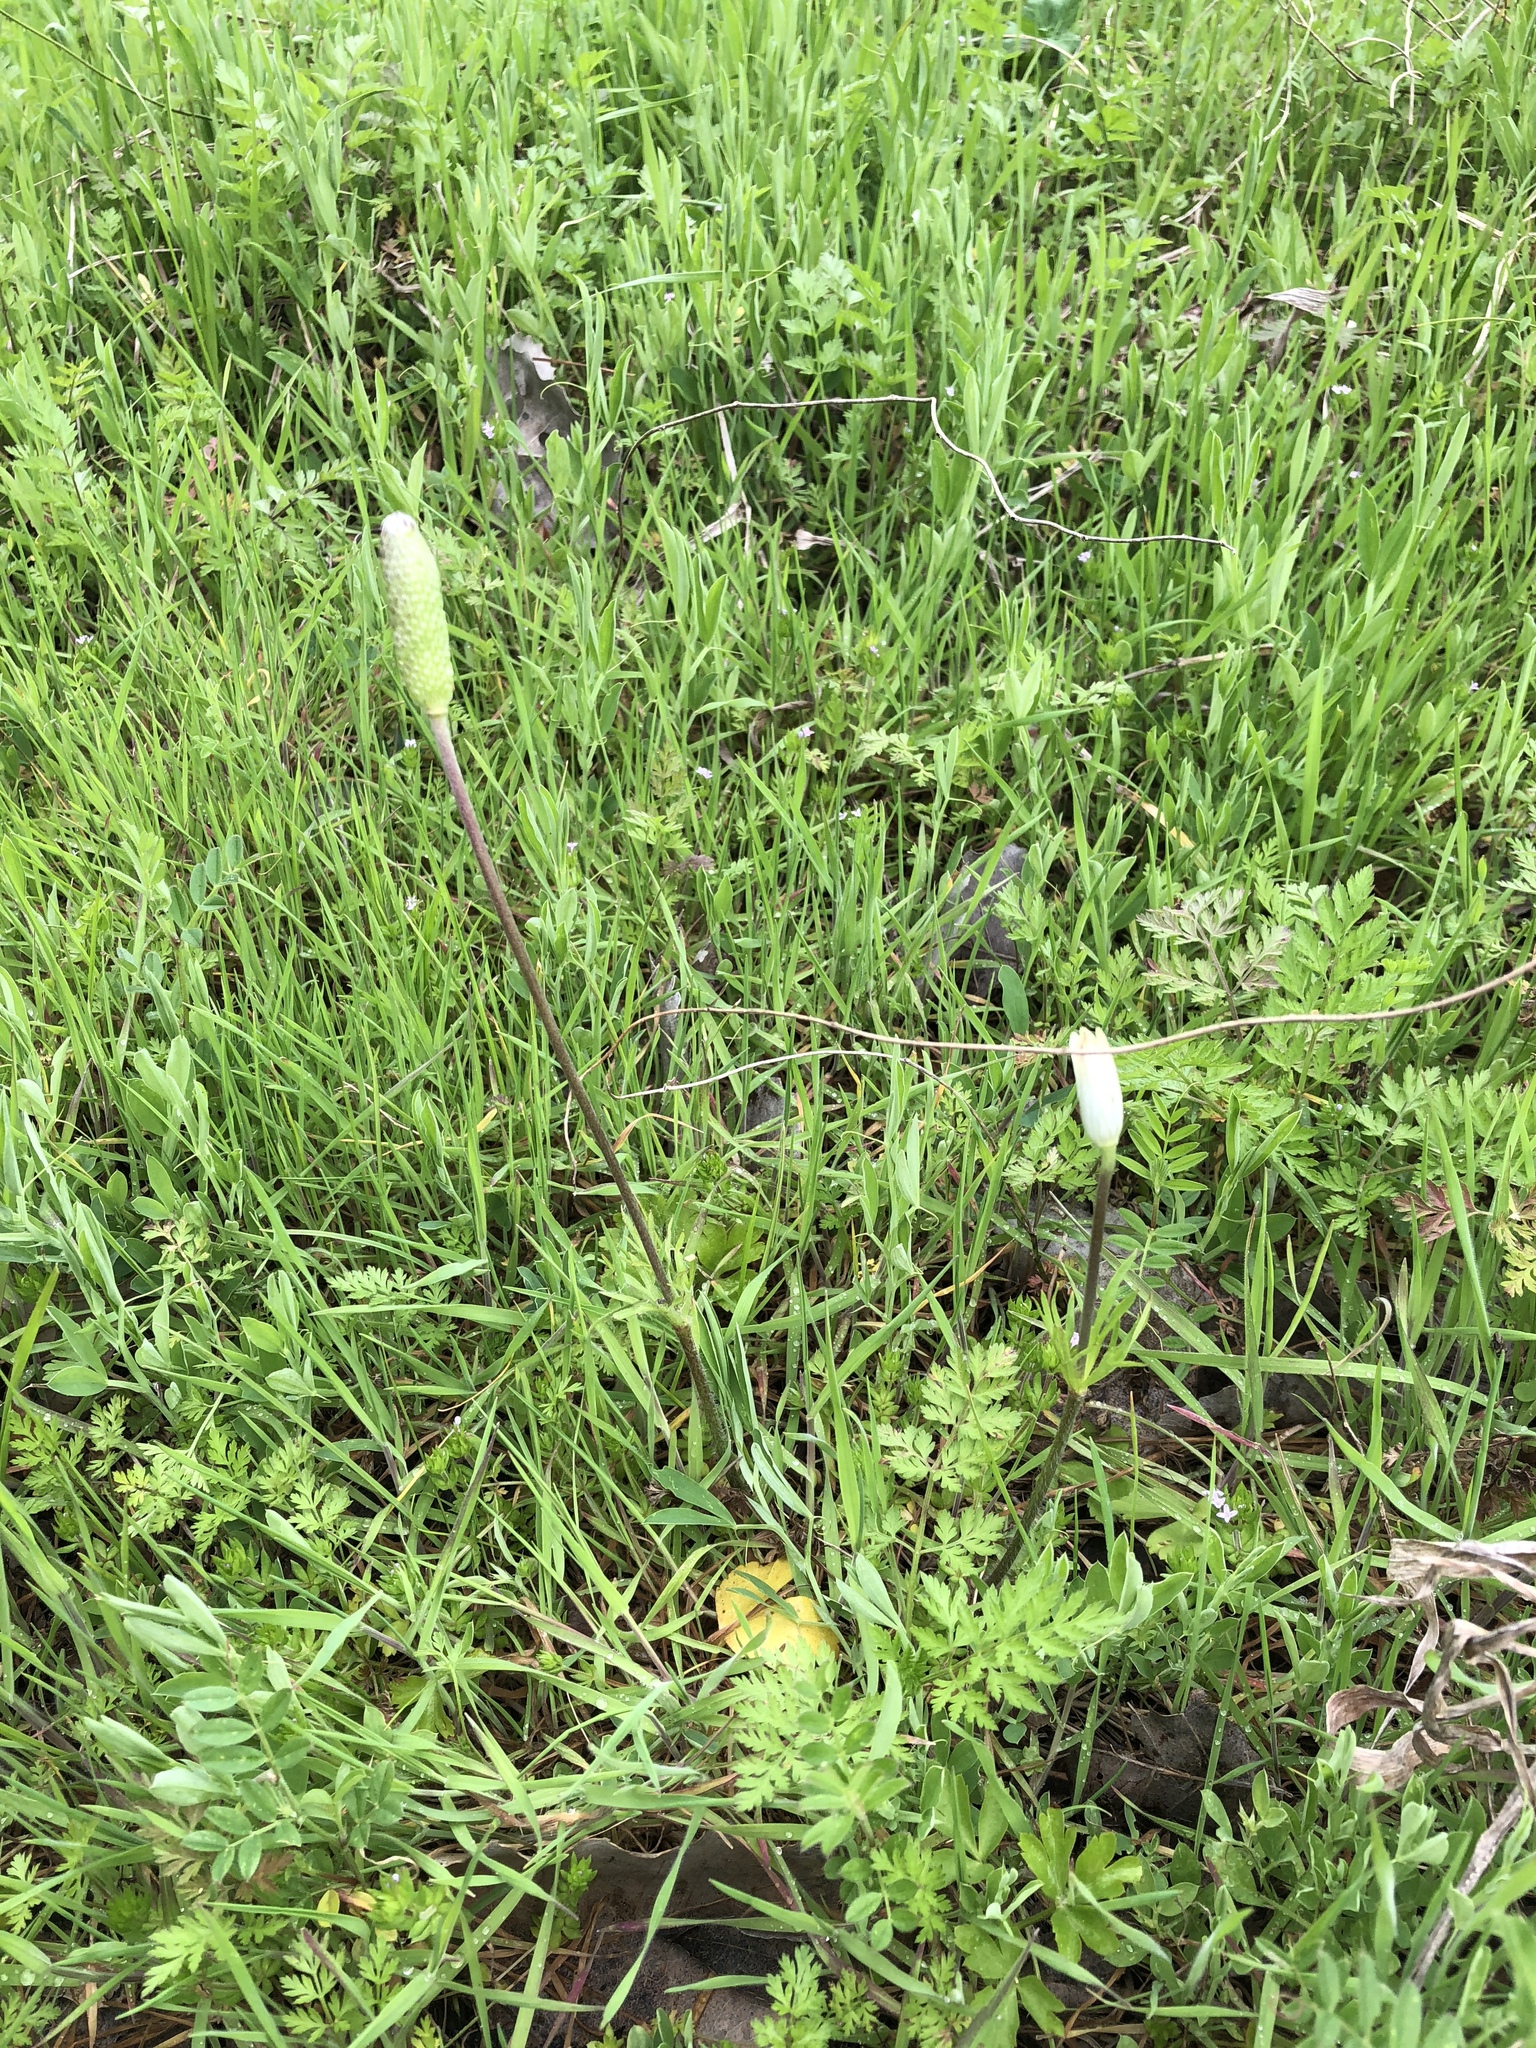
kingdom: Plantae
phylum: Tracheophyta
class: Magnoliopsida
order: Ranunculales
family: Ranunculaceae
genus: Anemone
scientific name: Anemone berlandieri
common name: Ten-petal anemone
